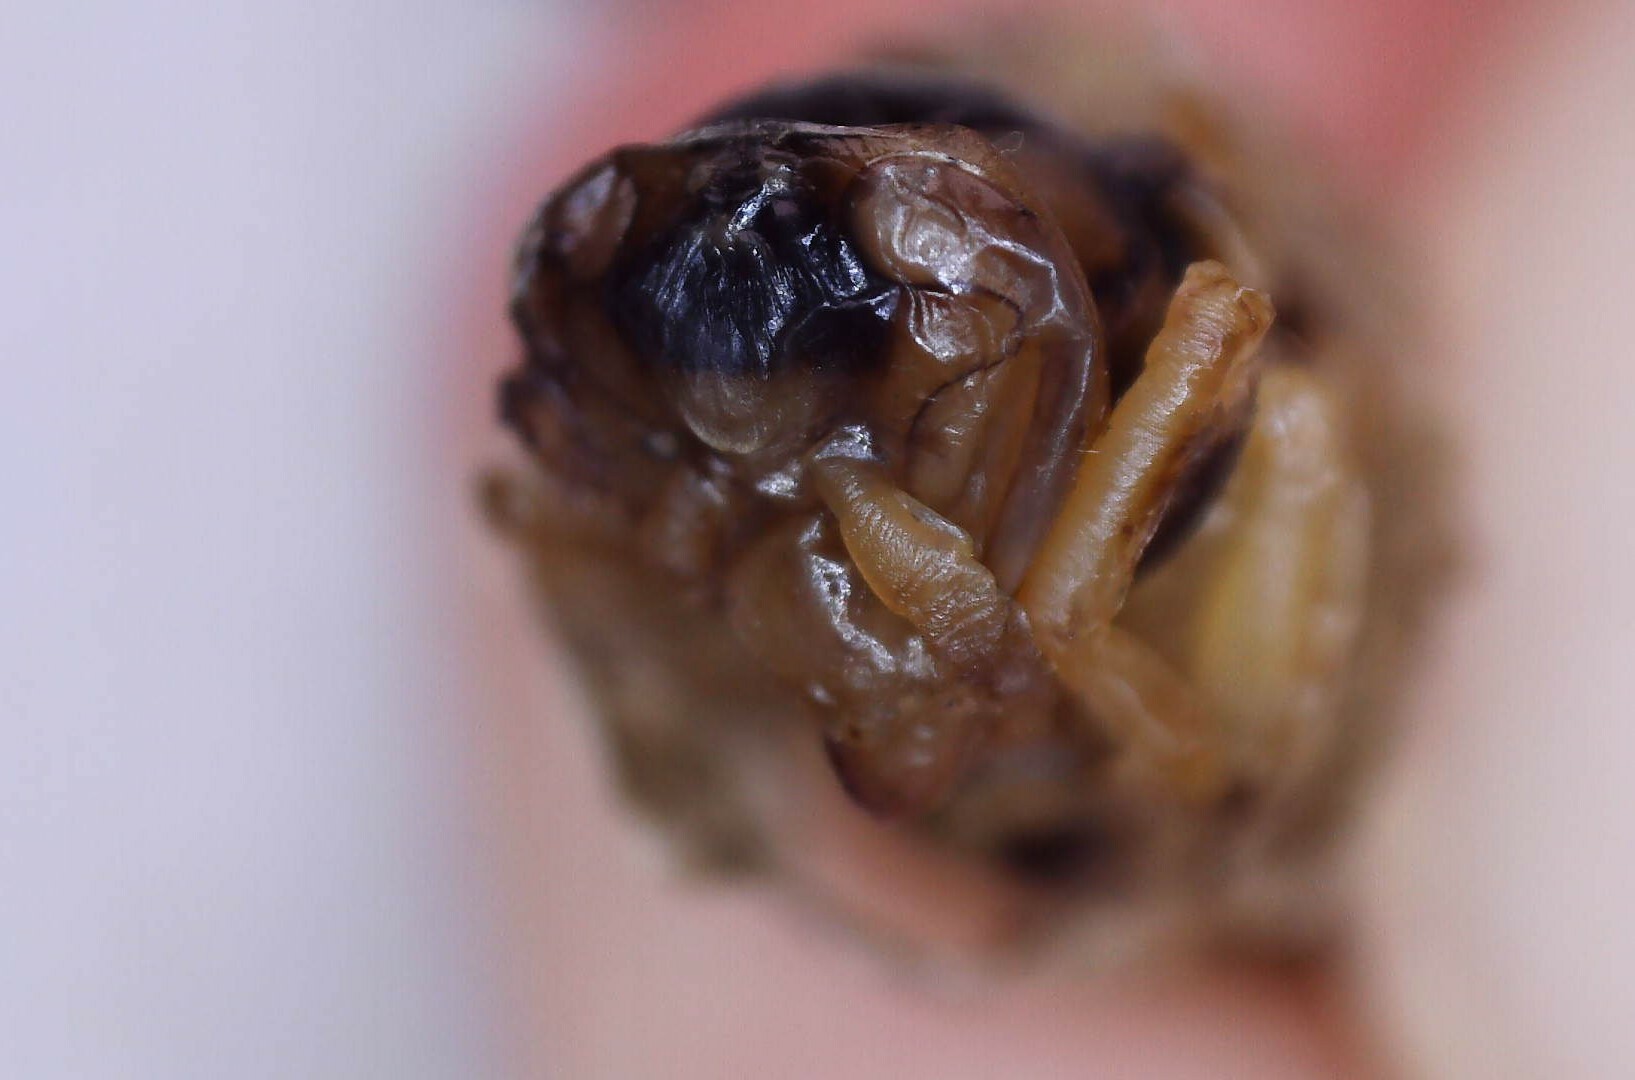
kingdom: Animalia
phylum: Arthropoda
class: Insecta
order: Hymenoptera
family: Vespidae
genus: Dolichovespula
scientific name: Dolichovespula maculata
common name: Bald-faced hornet
